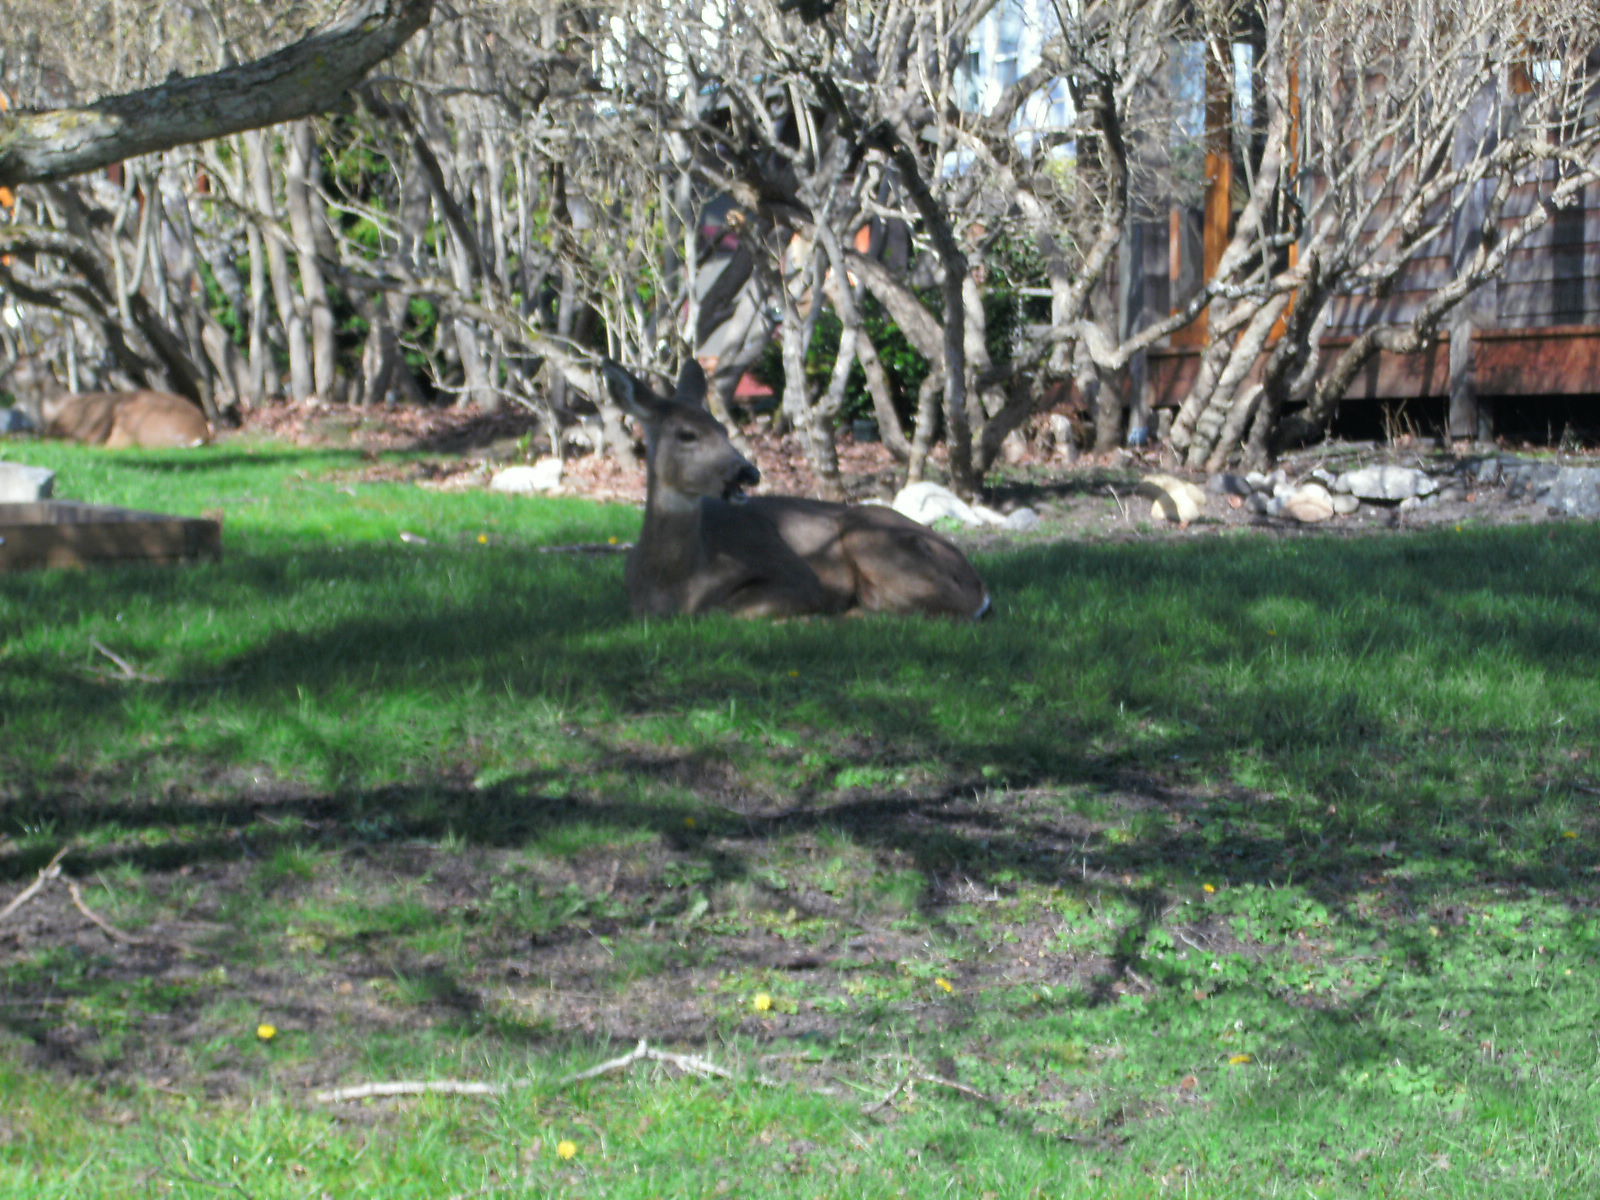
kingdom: Animalia
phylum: Chordata
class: Mammalia
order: Artiodactyla
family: Cervidae
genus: Odocoileus
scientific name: Odocoileus hemionus
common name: Mule deer
